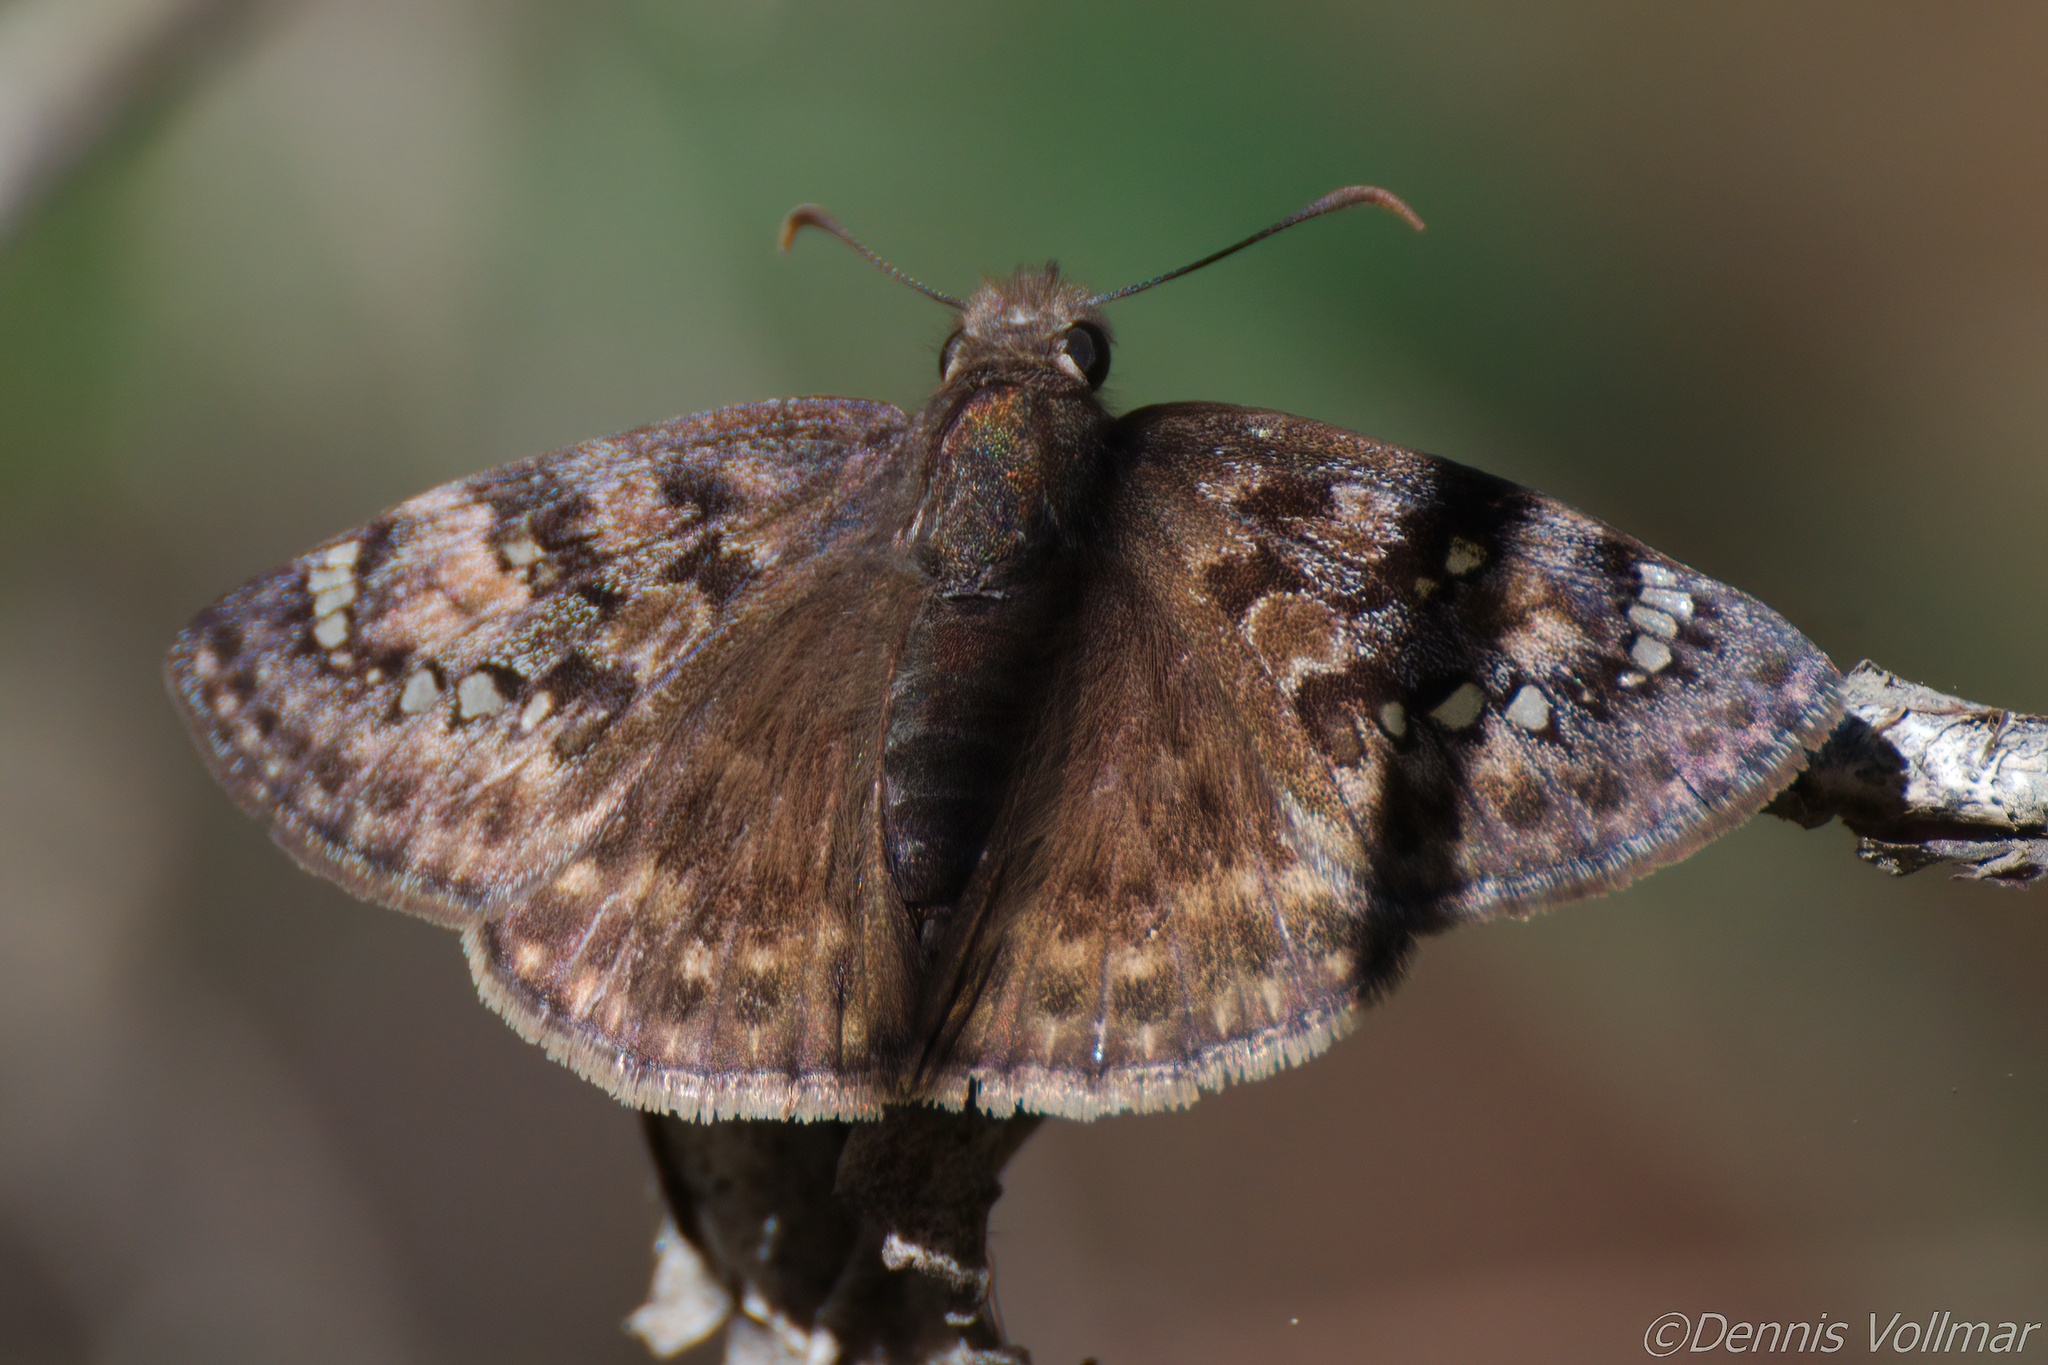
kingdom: Animalia
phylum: Arthropoda
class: Insecta
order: Lepidoptera
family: Hesperiidae
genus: Erynnis
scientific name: Erynnis juvenalis
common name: Juvenal's duskywing
